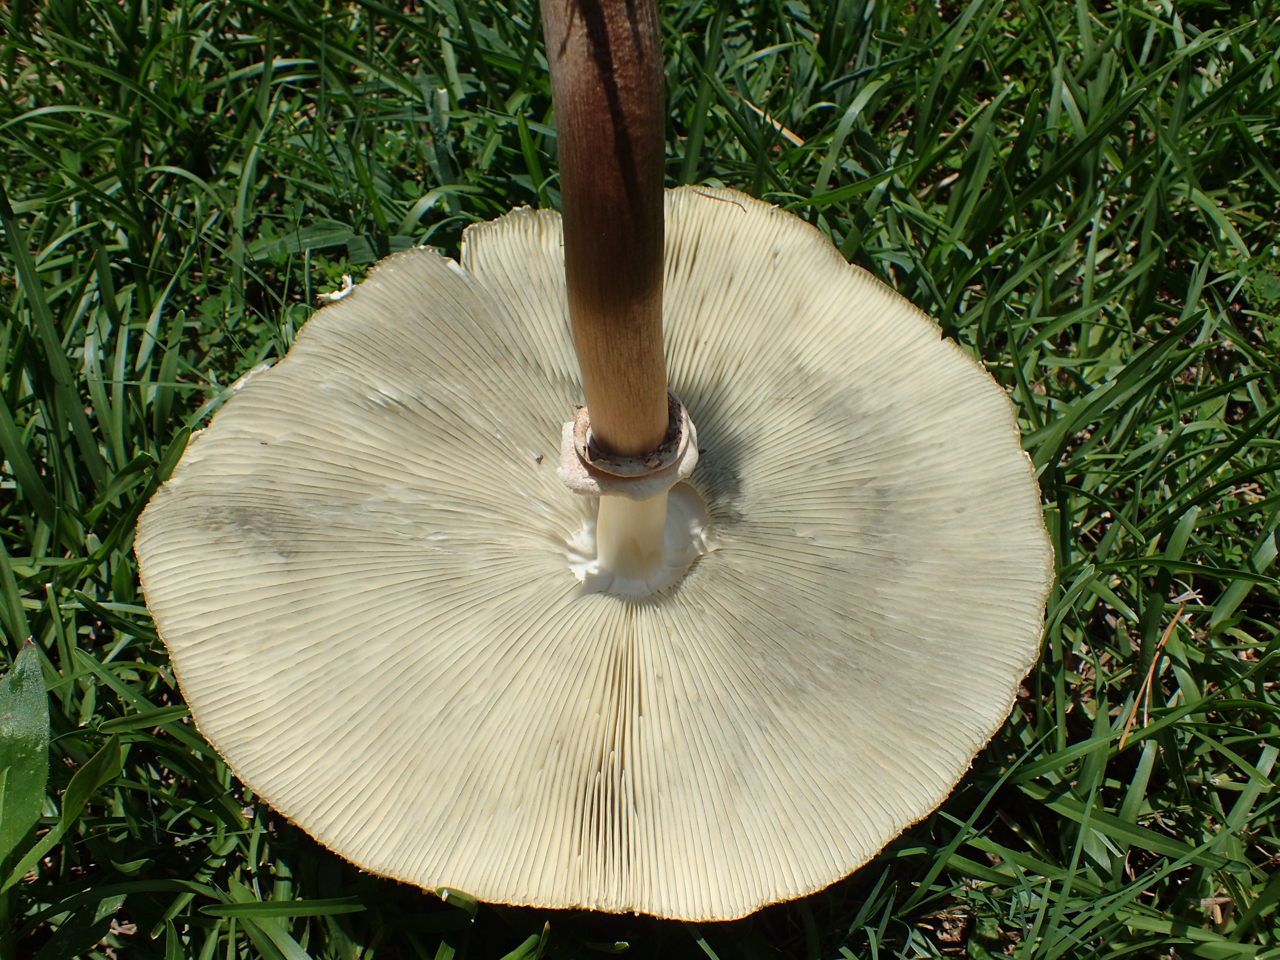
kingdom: Fungi
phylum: Basidiomycota
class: Agaricomycetes
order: Agaricales
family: Agaricaceae
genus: Chlorophyllum
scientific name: Chlorophyllum molybdites
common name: False parasol
